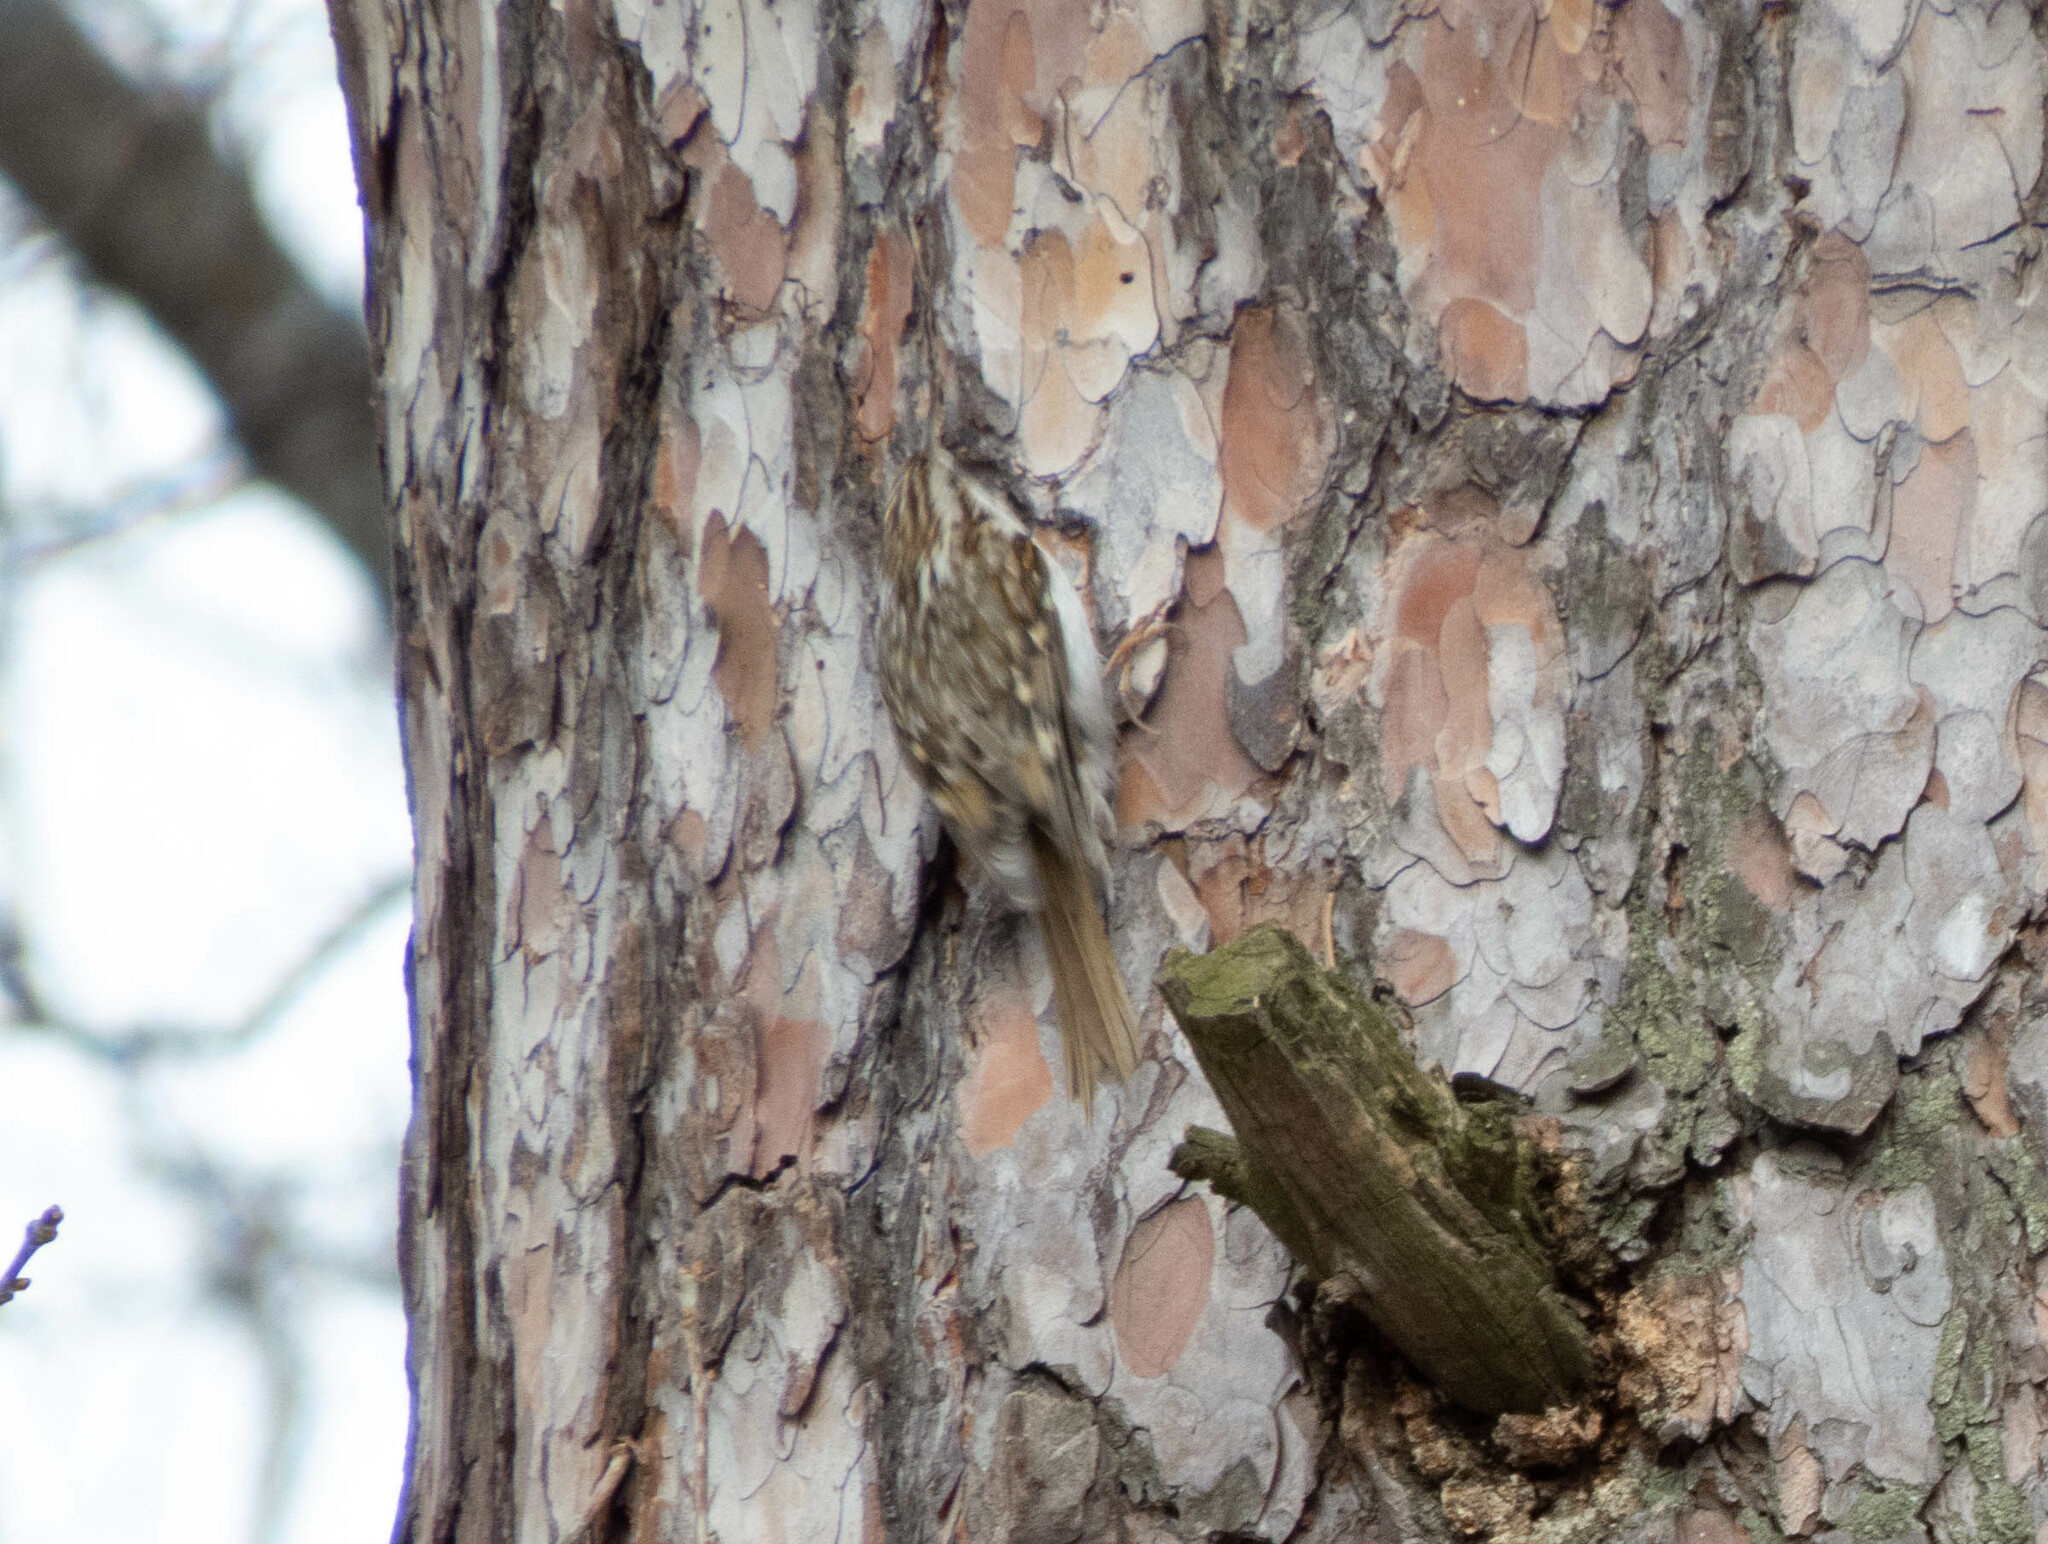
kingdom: Animalia
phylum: Chordata
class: Aves
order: Passeriformes
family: Certhiidae
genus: Certhia
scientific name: Certhia familiaris
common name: Eurasian treecreeper
